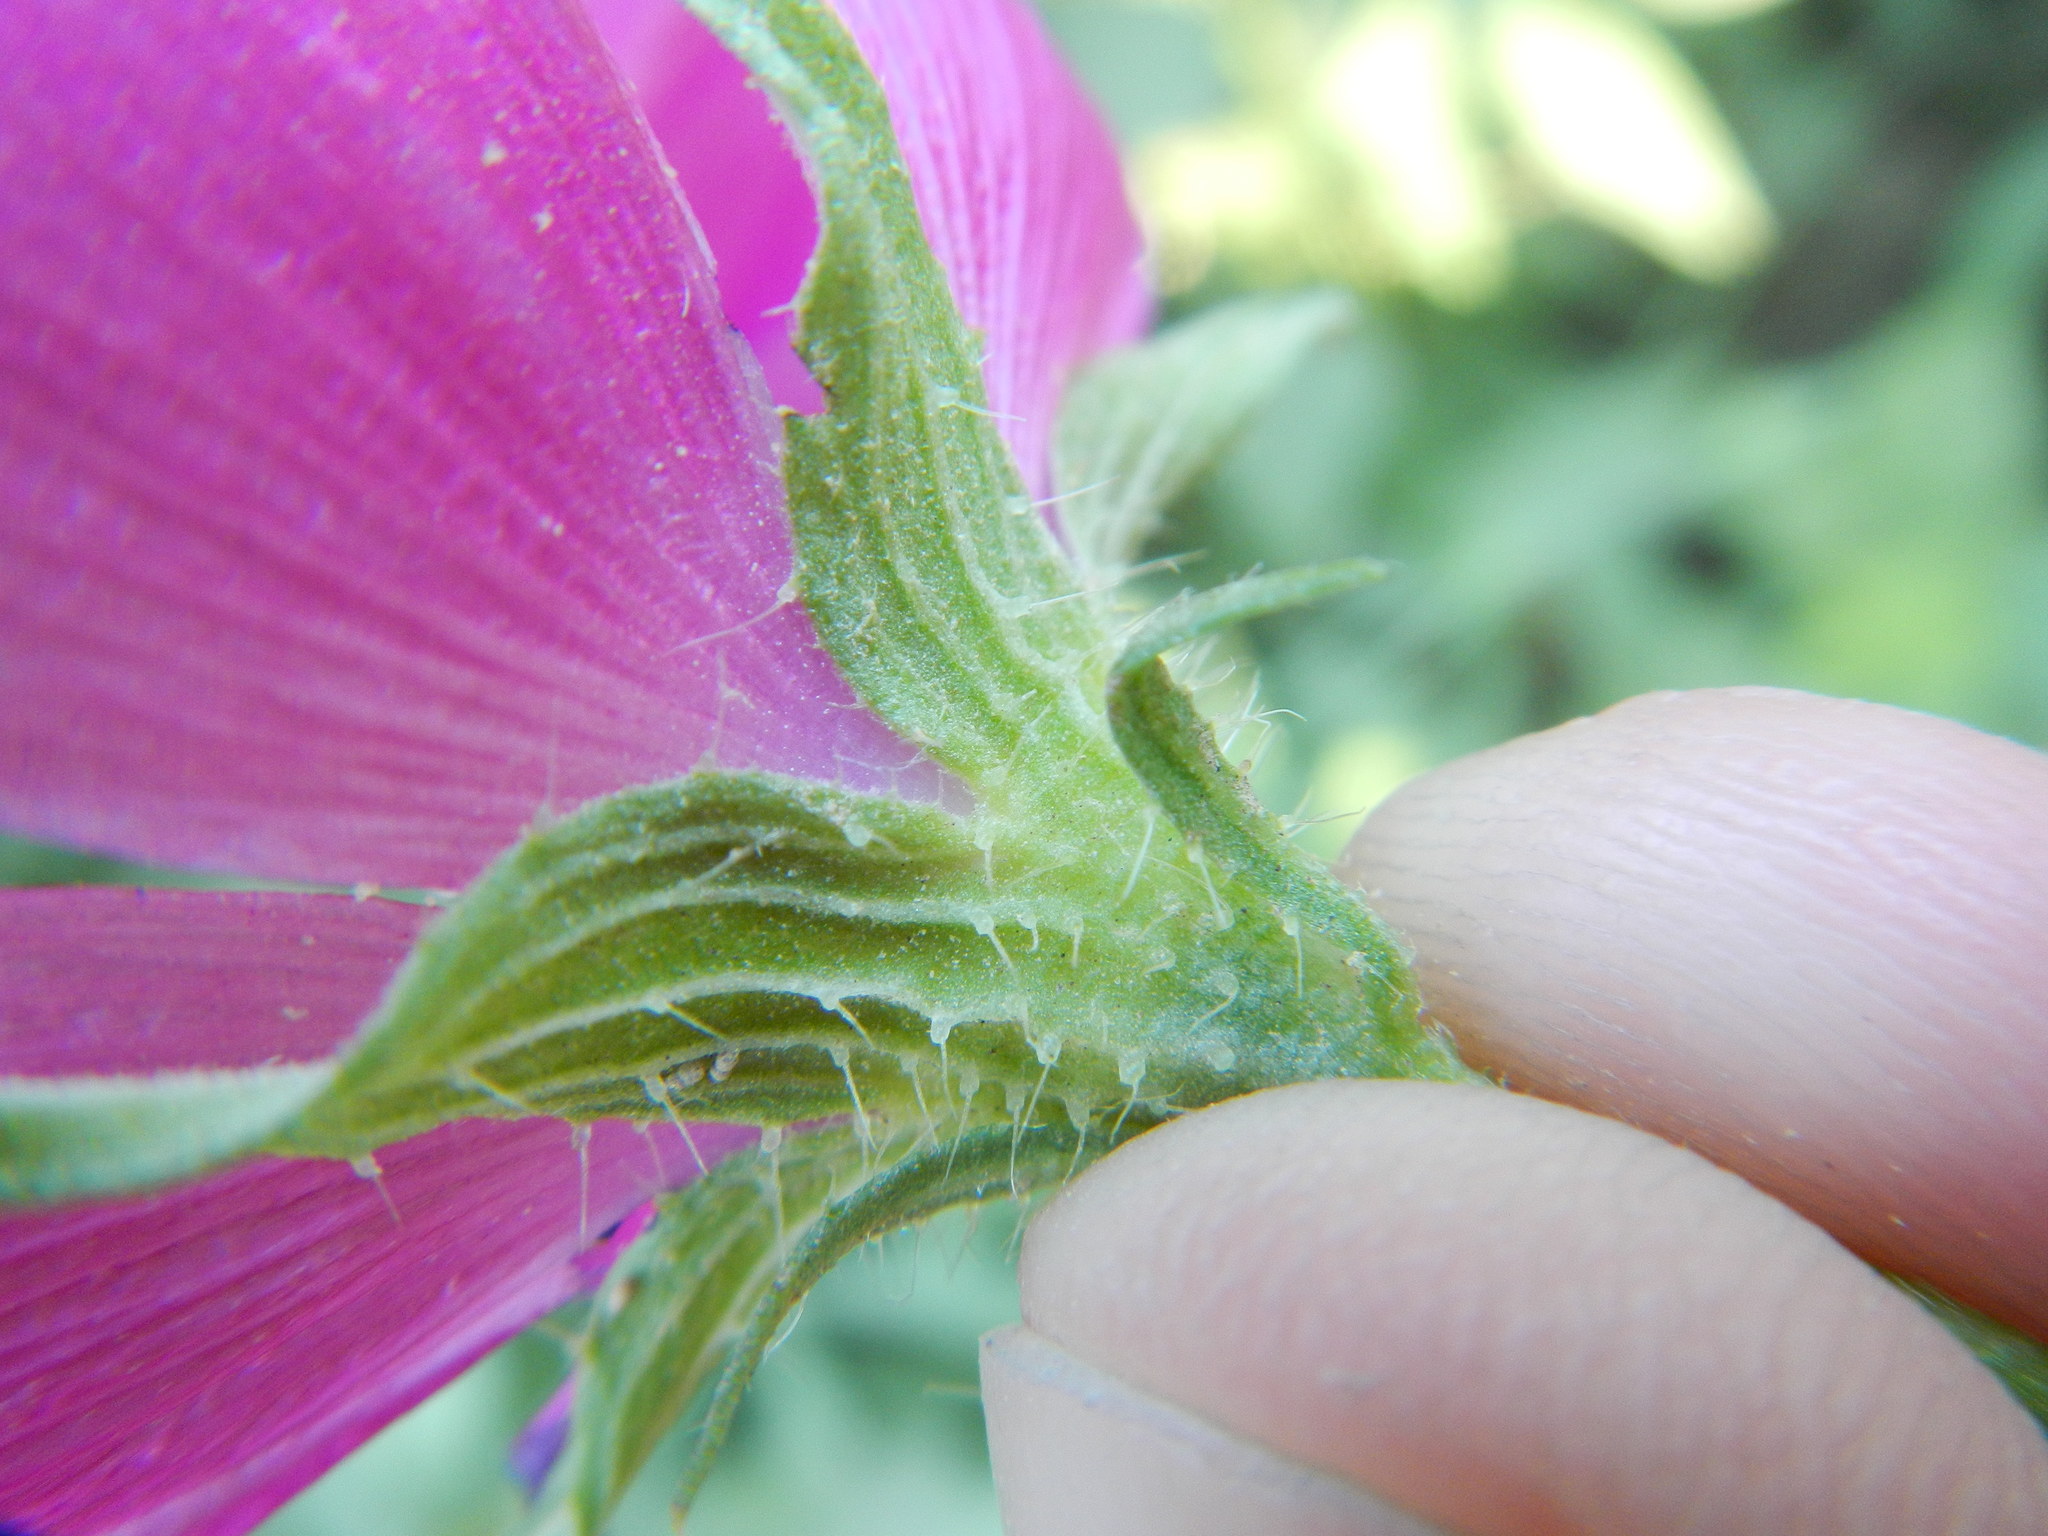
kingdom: Plantae
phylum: Tracheophyta
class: Magnoliopsida
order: Malvales
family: Malvaceae
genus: Callirhoe
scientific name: Callirhoe papaver
